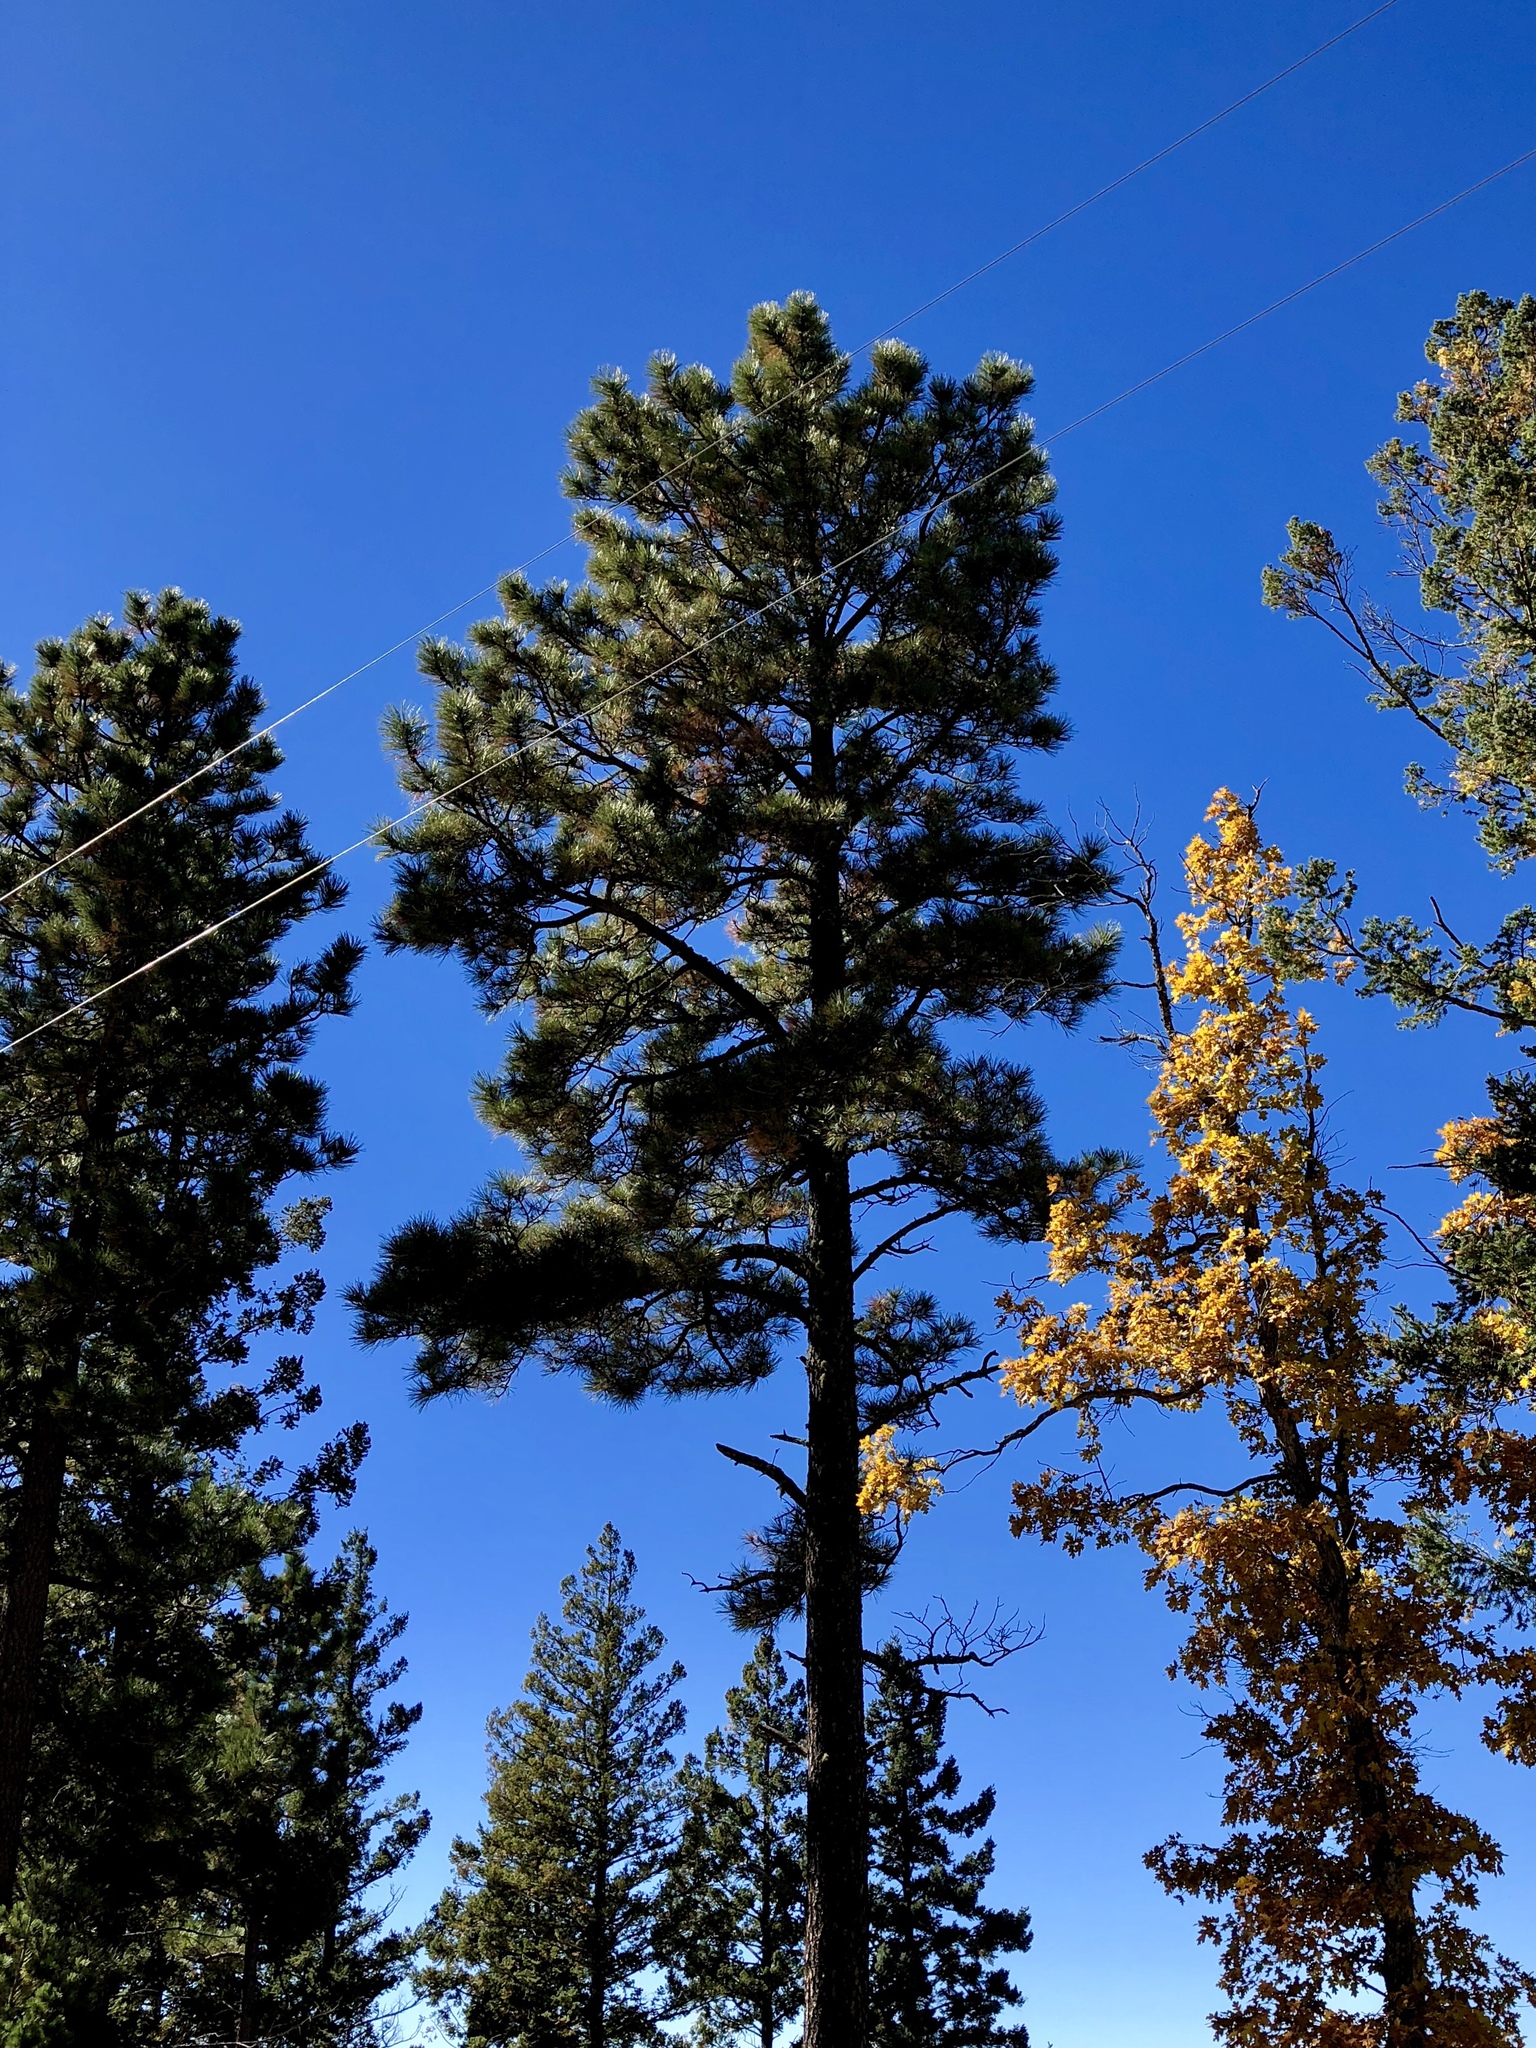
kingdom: Plantae
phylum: Tracheophyta
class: Pinopsida
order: Pinales
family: Pinaceae
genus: Pinus
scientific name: Pinus ponderosa
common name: Western yellow-pine
